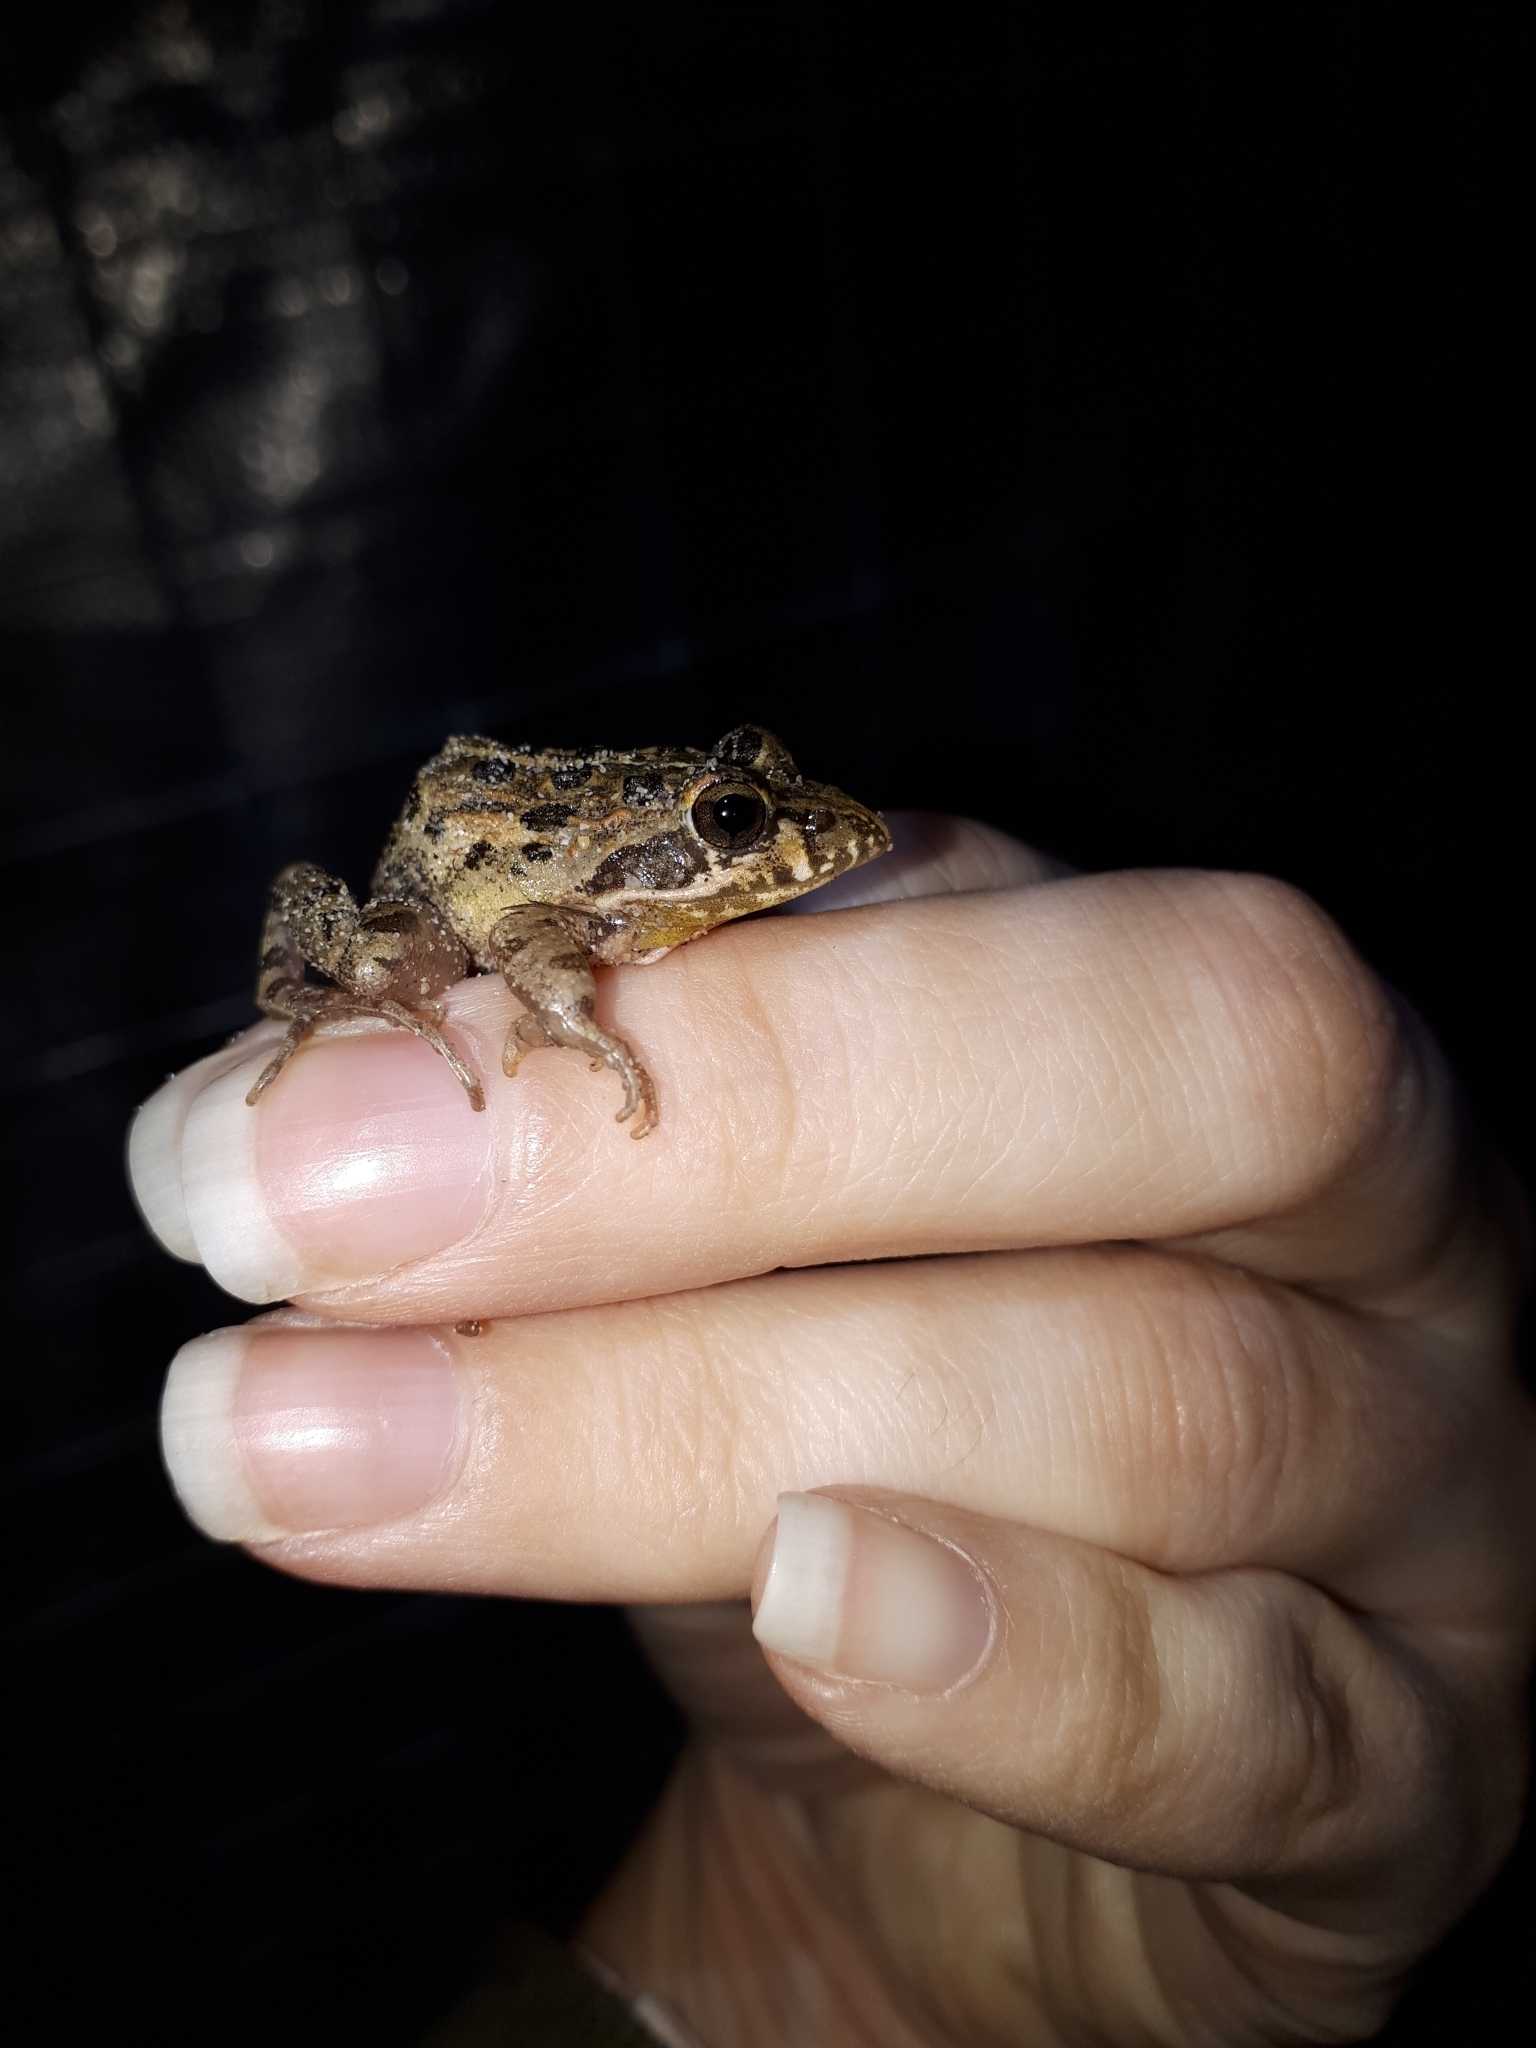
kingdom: Animalia
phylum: Chordata
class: Amphibia
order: Anura
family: Pyxicephalidae
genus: Strongylopus
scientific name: Strongylopus grayii
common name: Gray's stream frog
